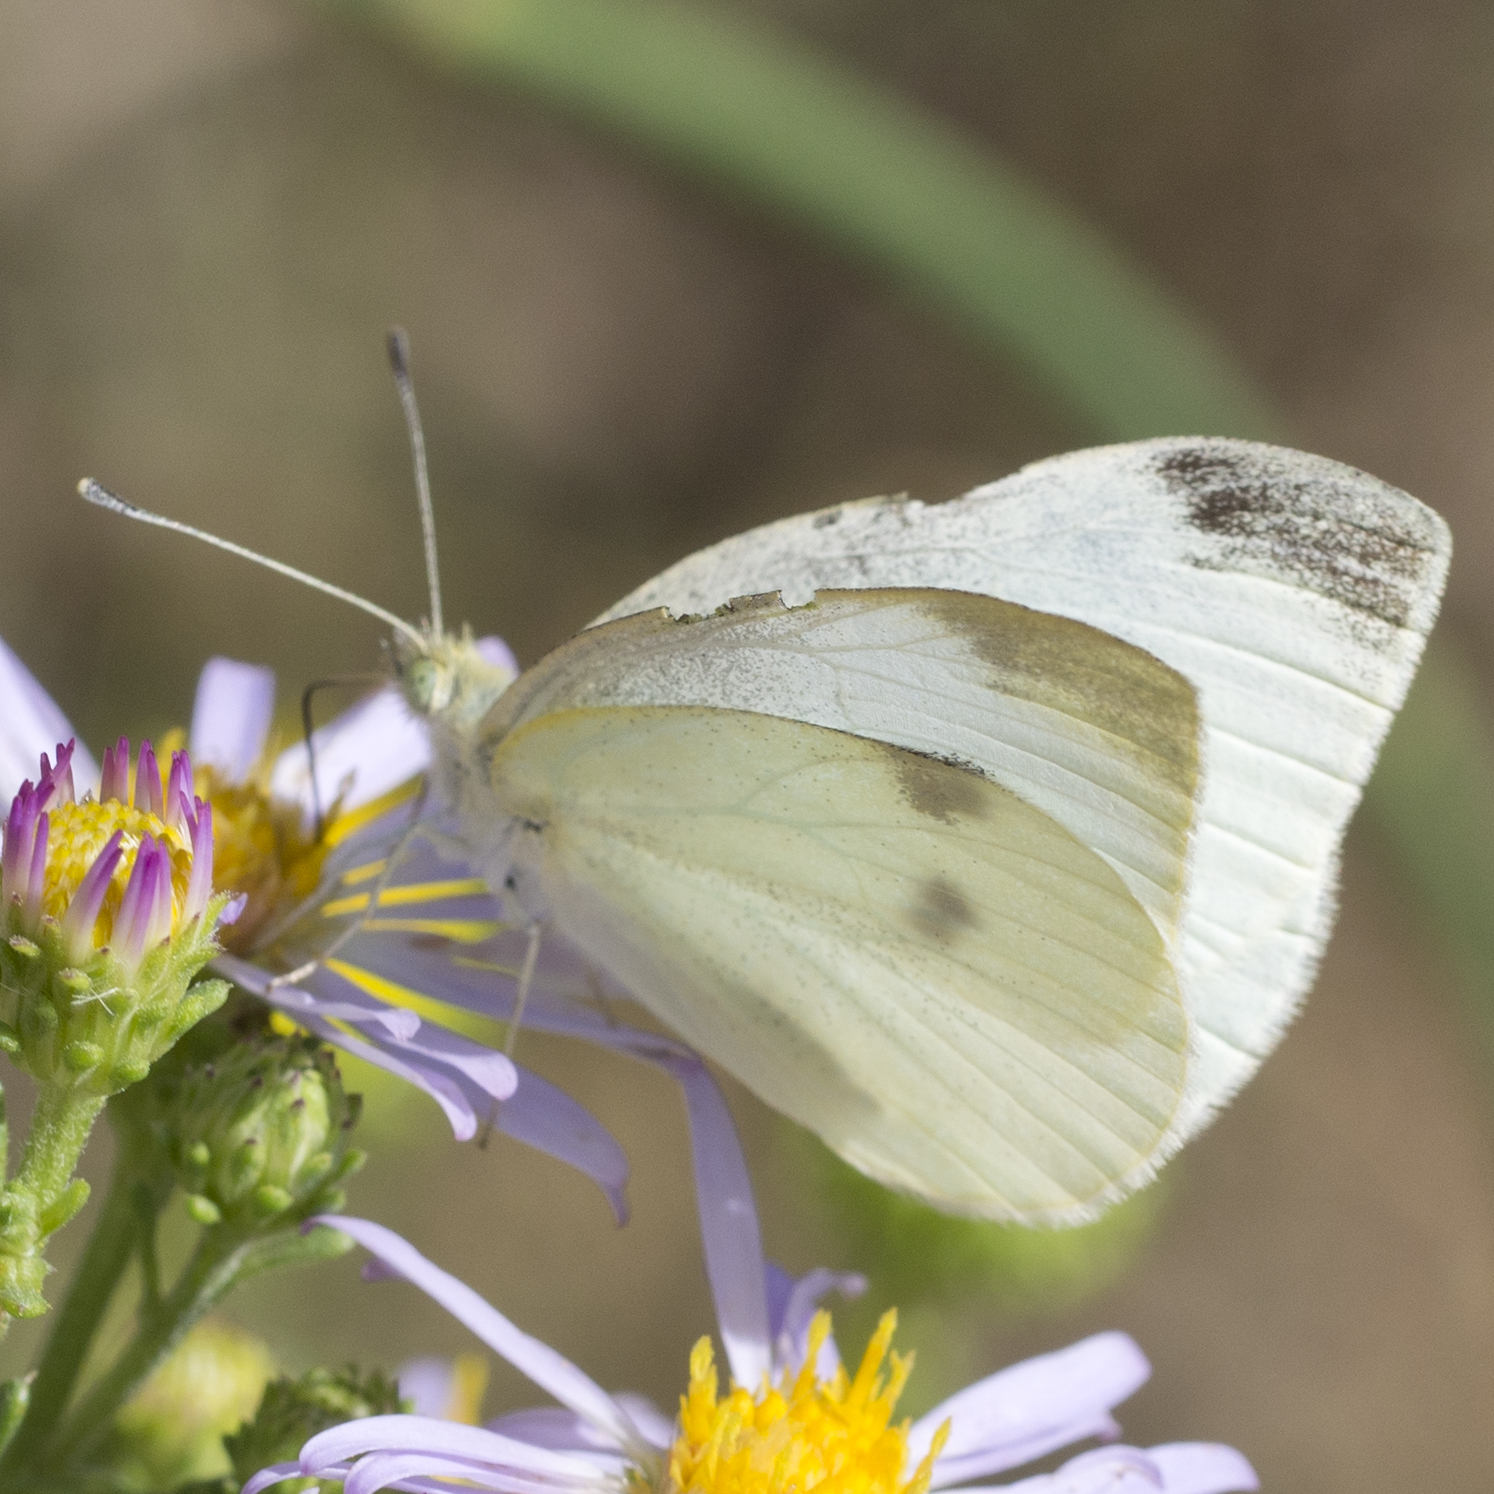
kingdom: Animalia
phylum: Arthropoda
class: Insecta
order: Lepidoptera
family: Pieridae
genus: Pieris
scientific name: Pieris rapae
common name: Small white
